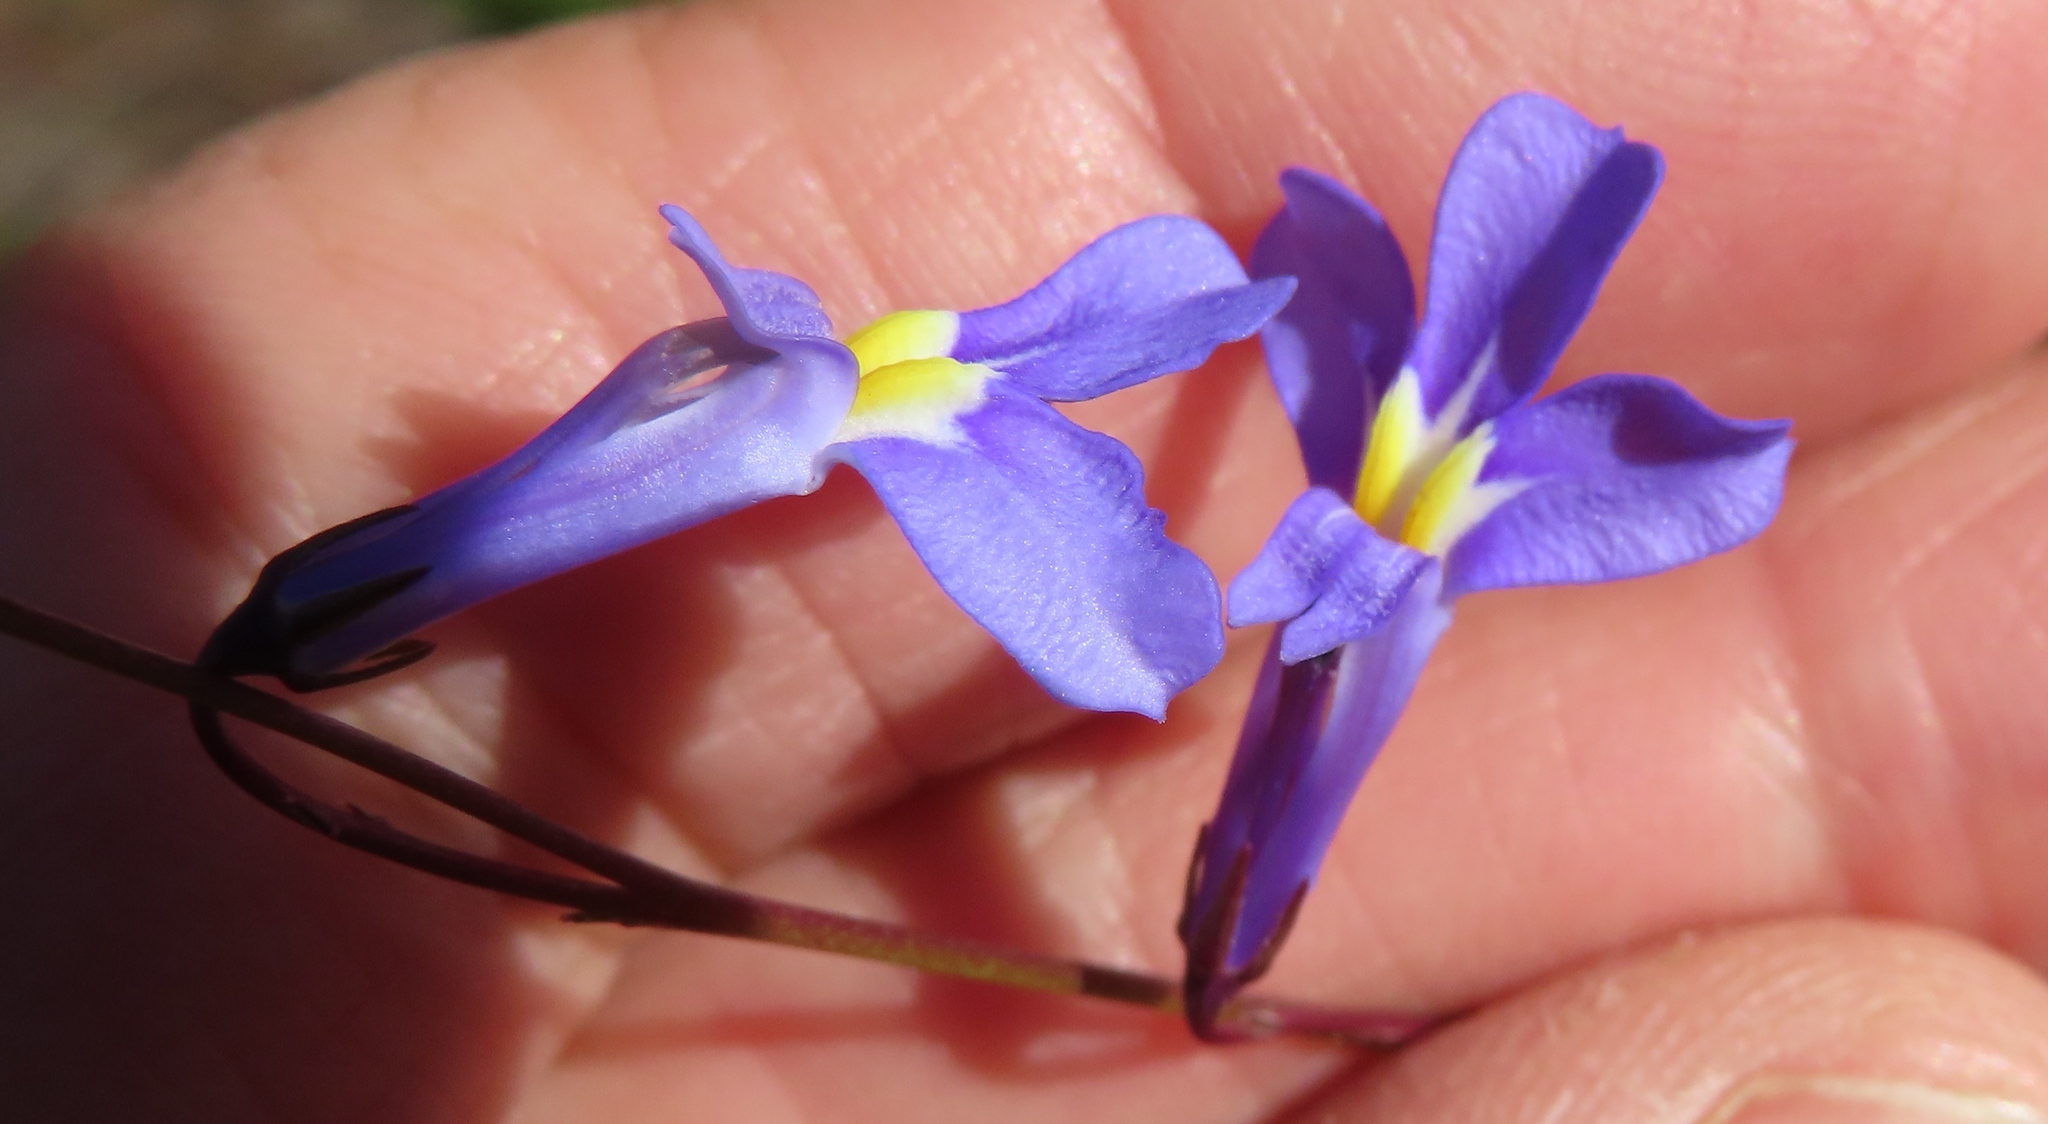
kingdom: Plantae
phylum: Tracheophyta
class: Magnoliopsida
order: Asterales
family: Campanulaceae
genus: Lobelia
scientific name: Lobelia chamaepitys
